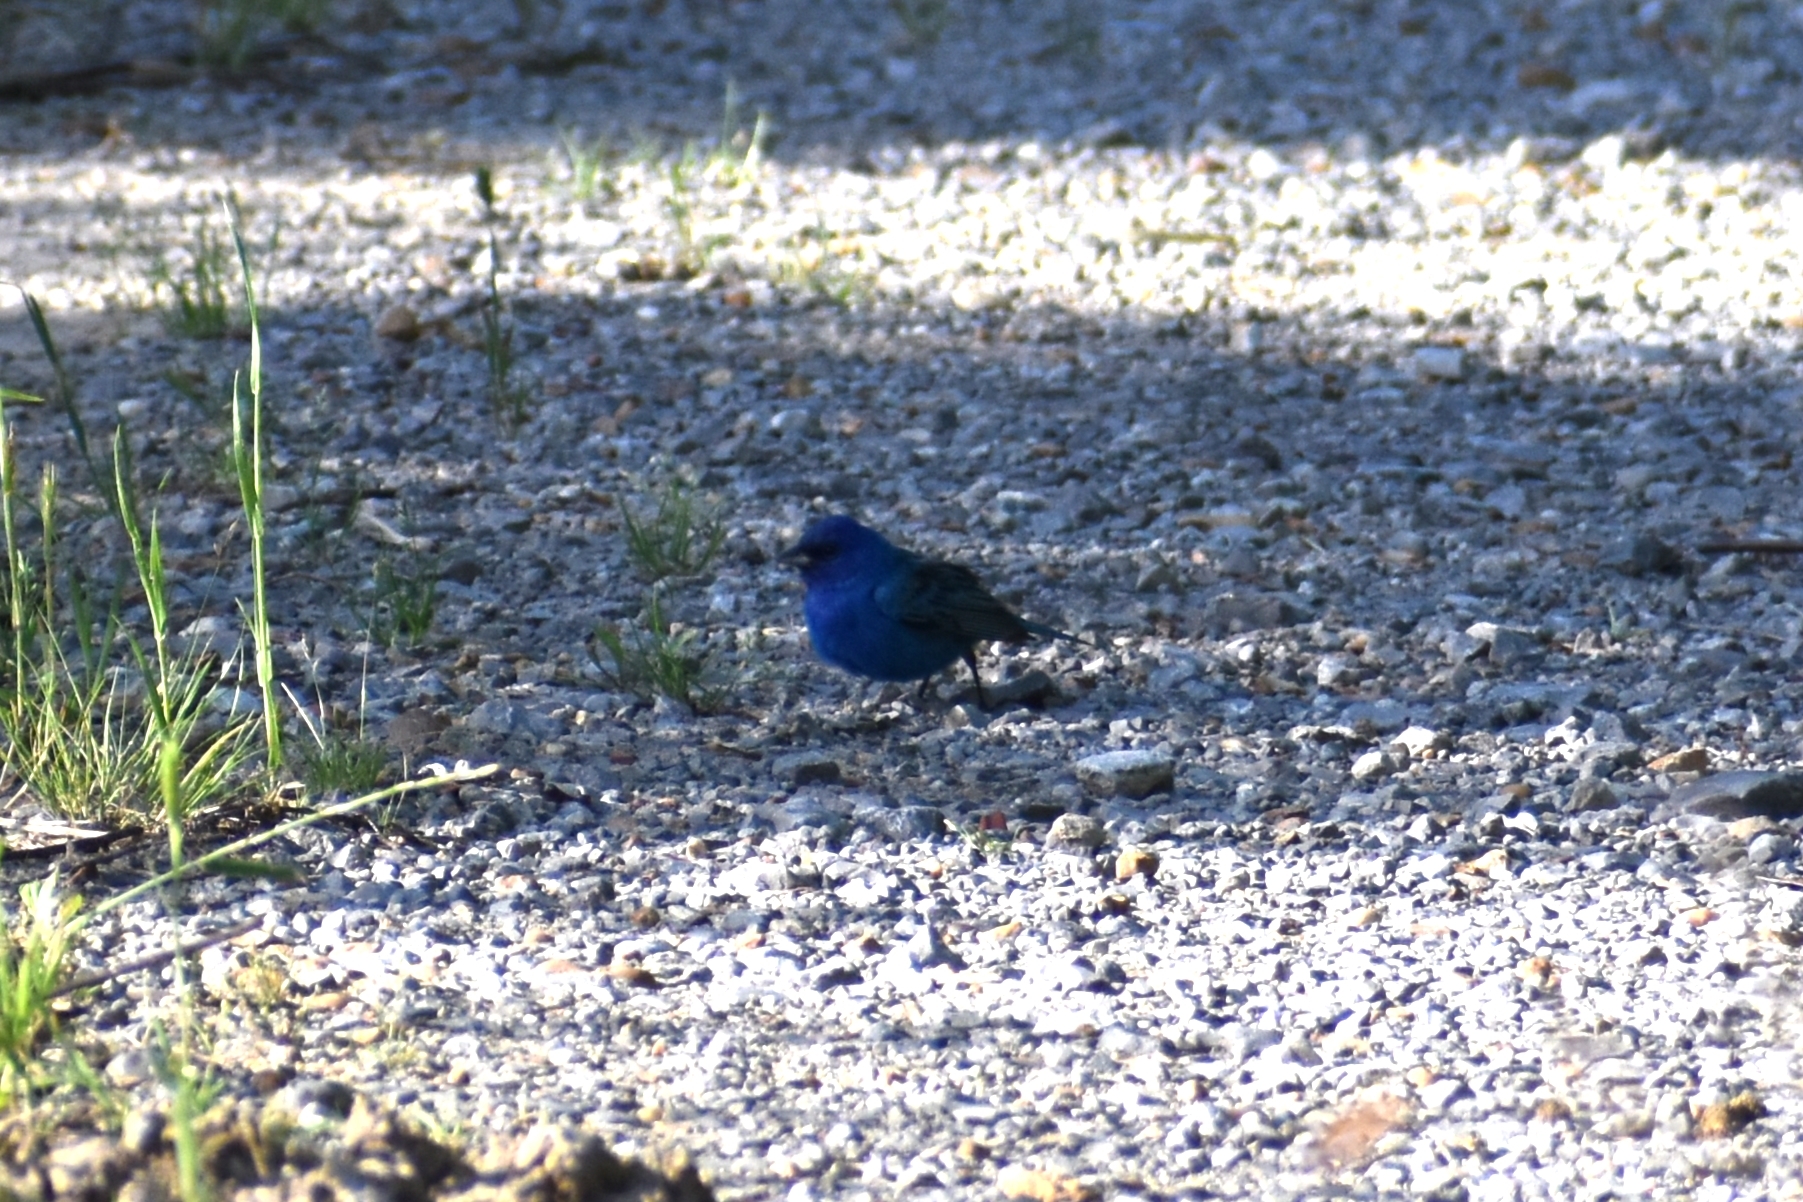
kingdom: Animalia
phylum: Chordata
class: Aves
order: Passeriformes
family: Cardinalidae
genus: Passerina
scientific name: Passerina cyanea
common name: Indigo bunting
